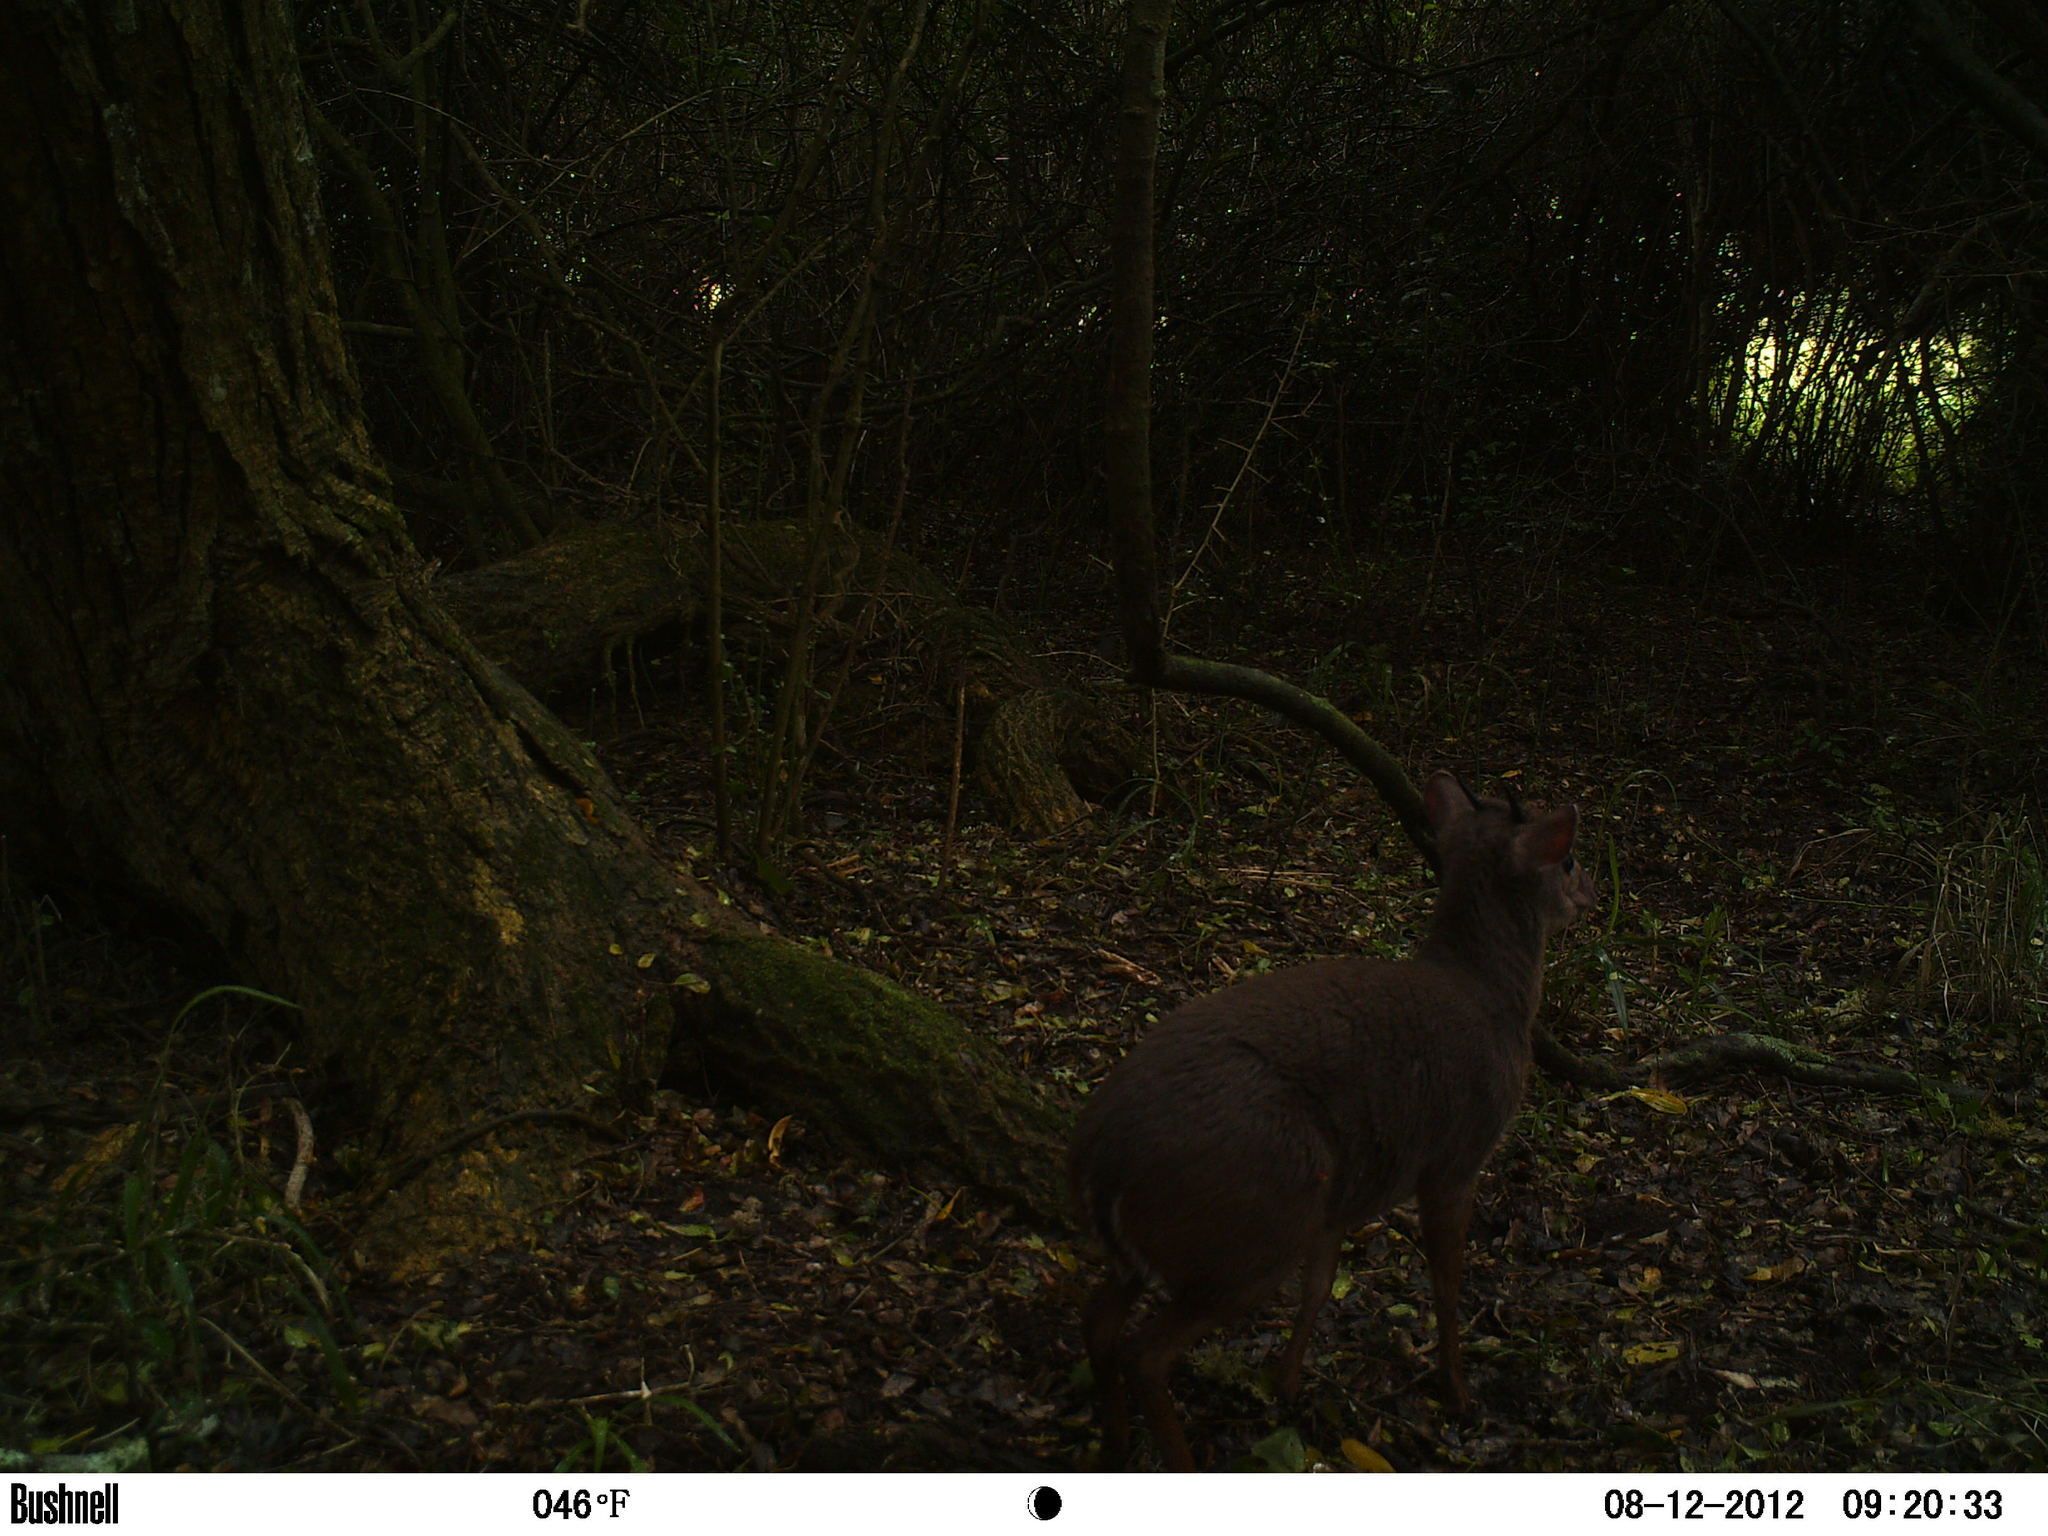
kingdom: Animalia
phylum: Chordata
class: Mammalia
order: Artiodactyla
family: Bovidae
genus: Philantomba
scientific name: Philantomba monticola
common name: Blue duiker
